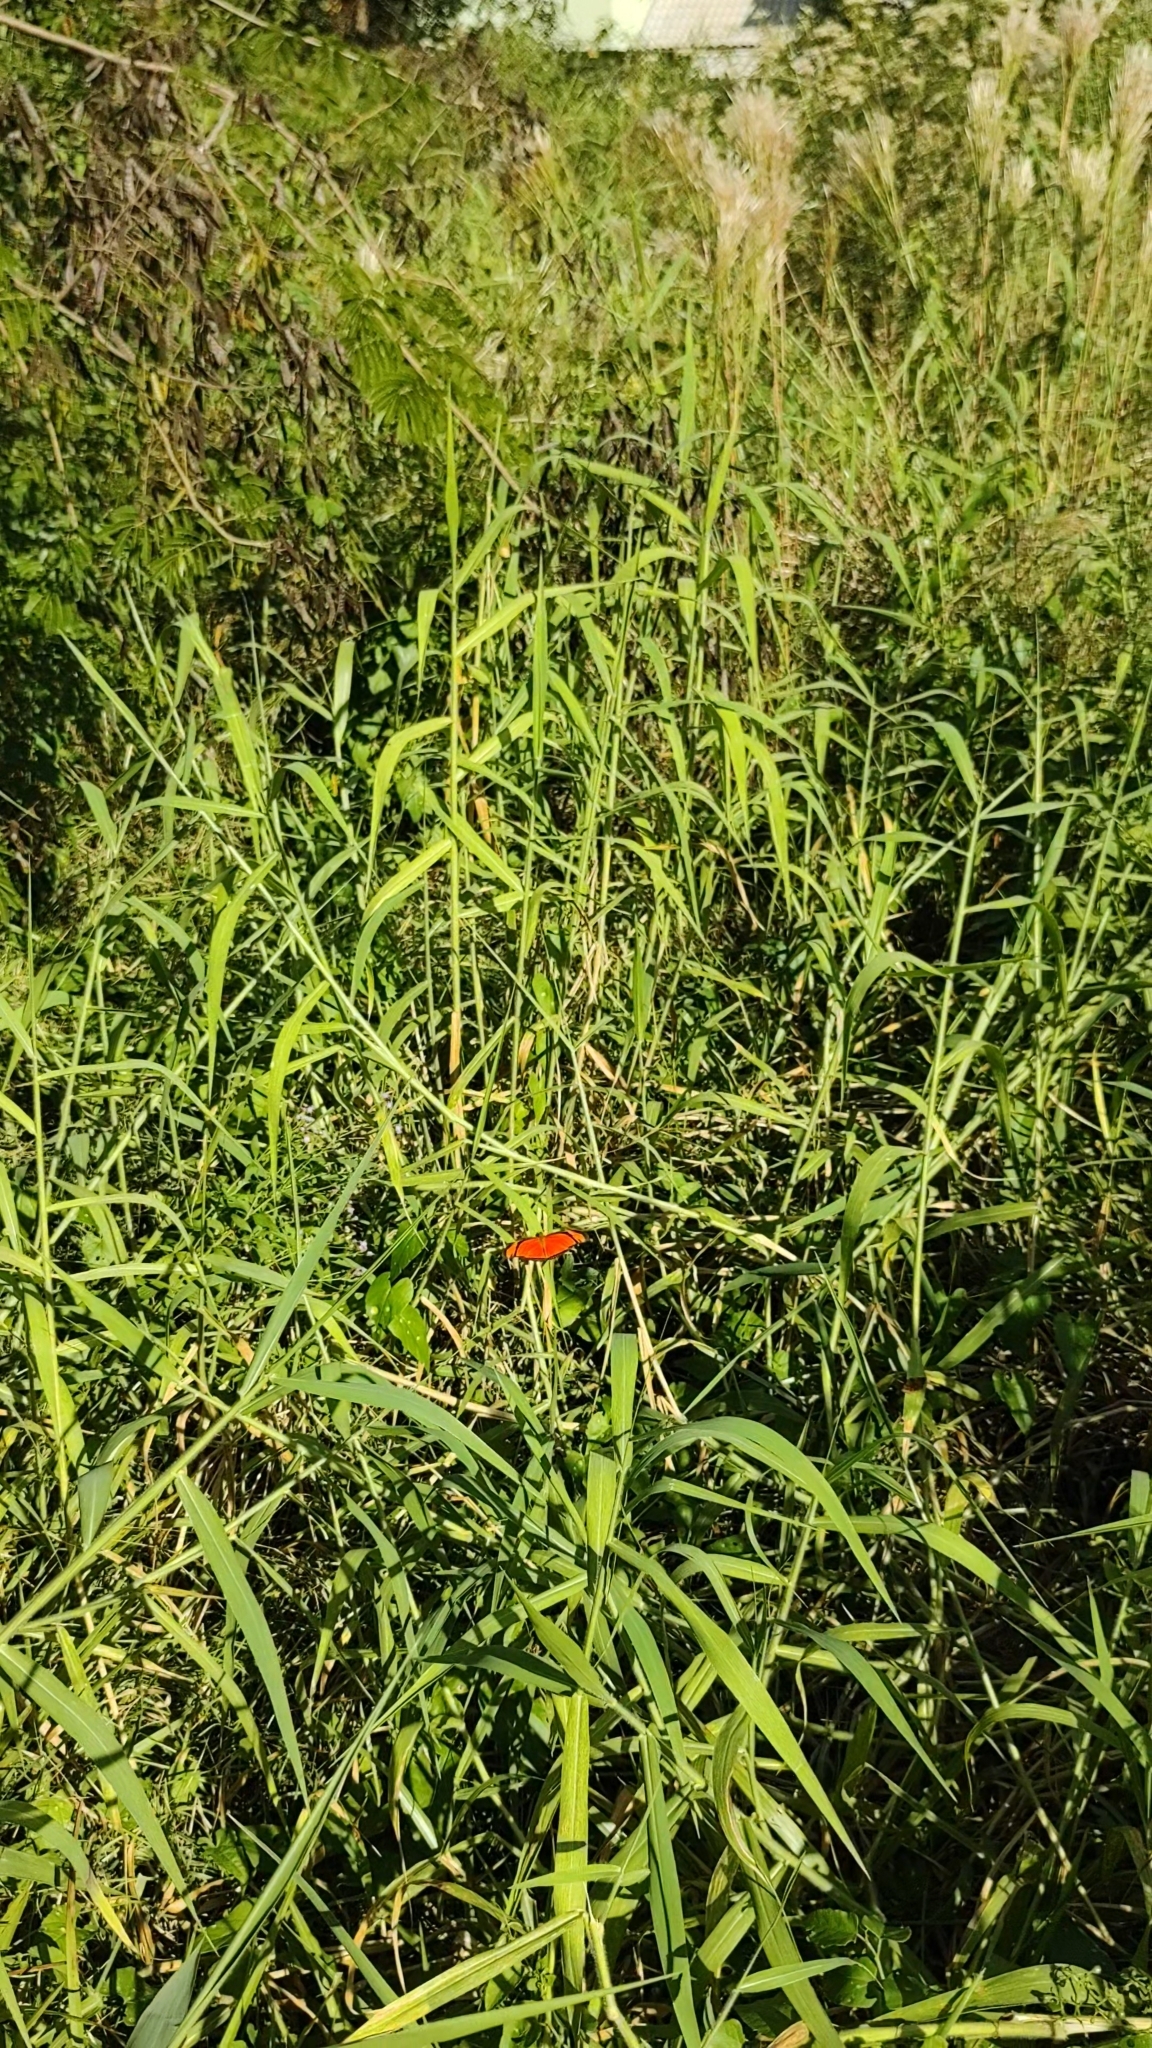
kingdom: Animalia
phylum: Arthropoda
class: Insecta
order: Lepidoptera
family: Nymphalidae
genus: Dryas
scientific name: Dryas iulia
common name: Flambeau
